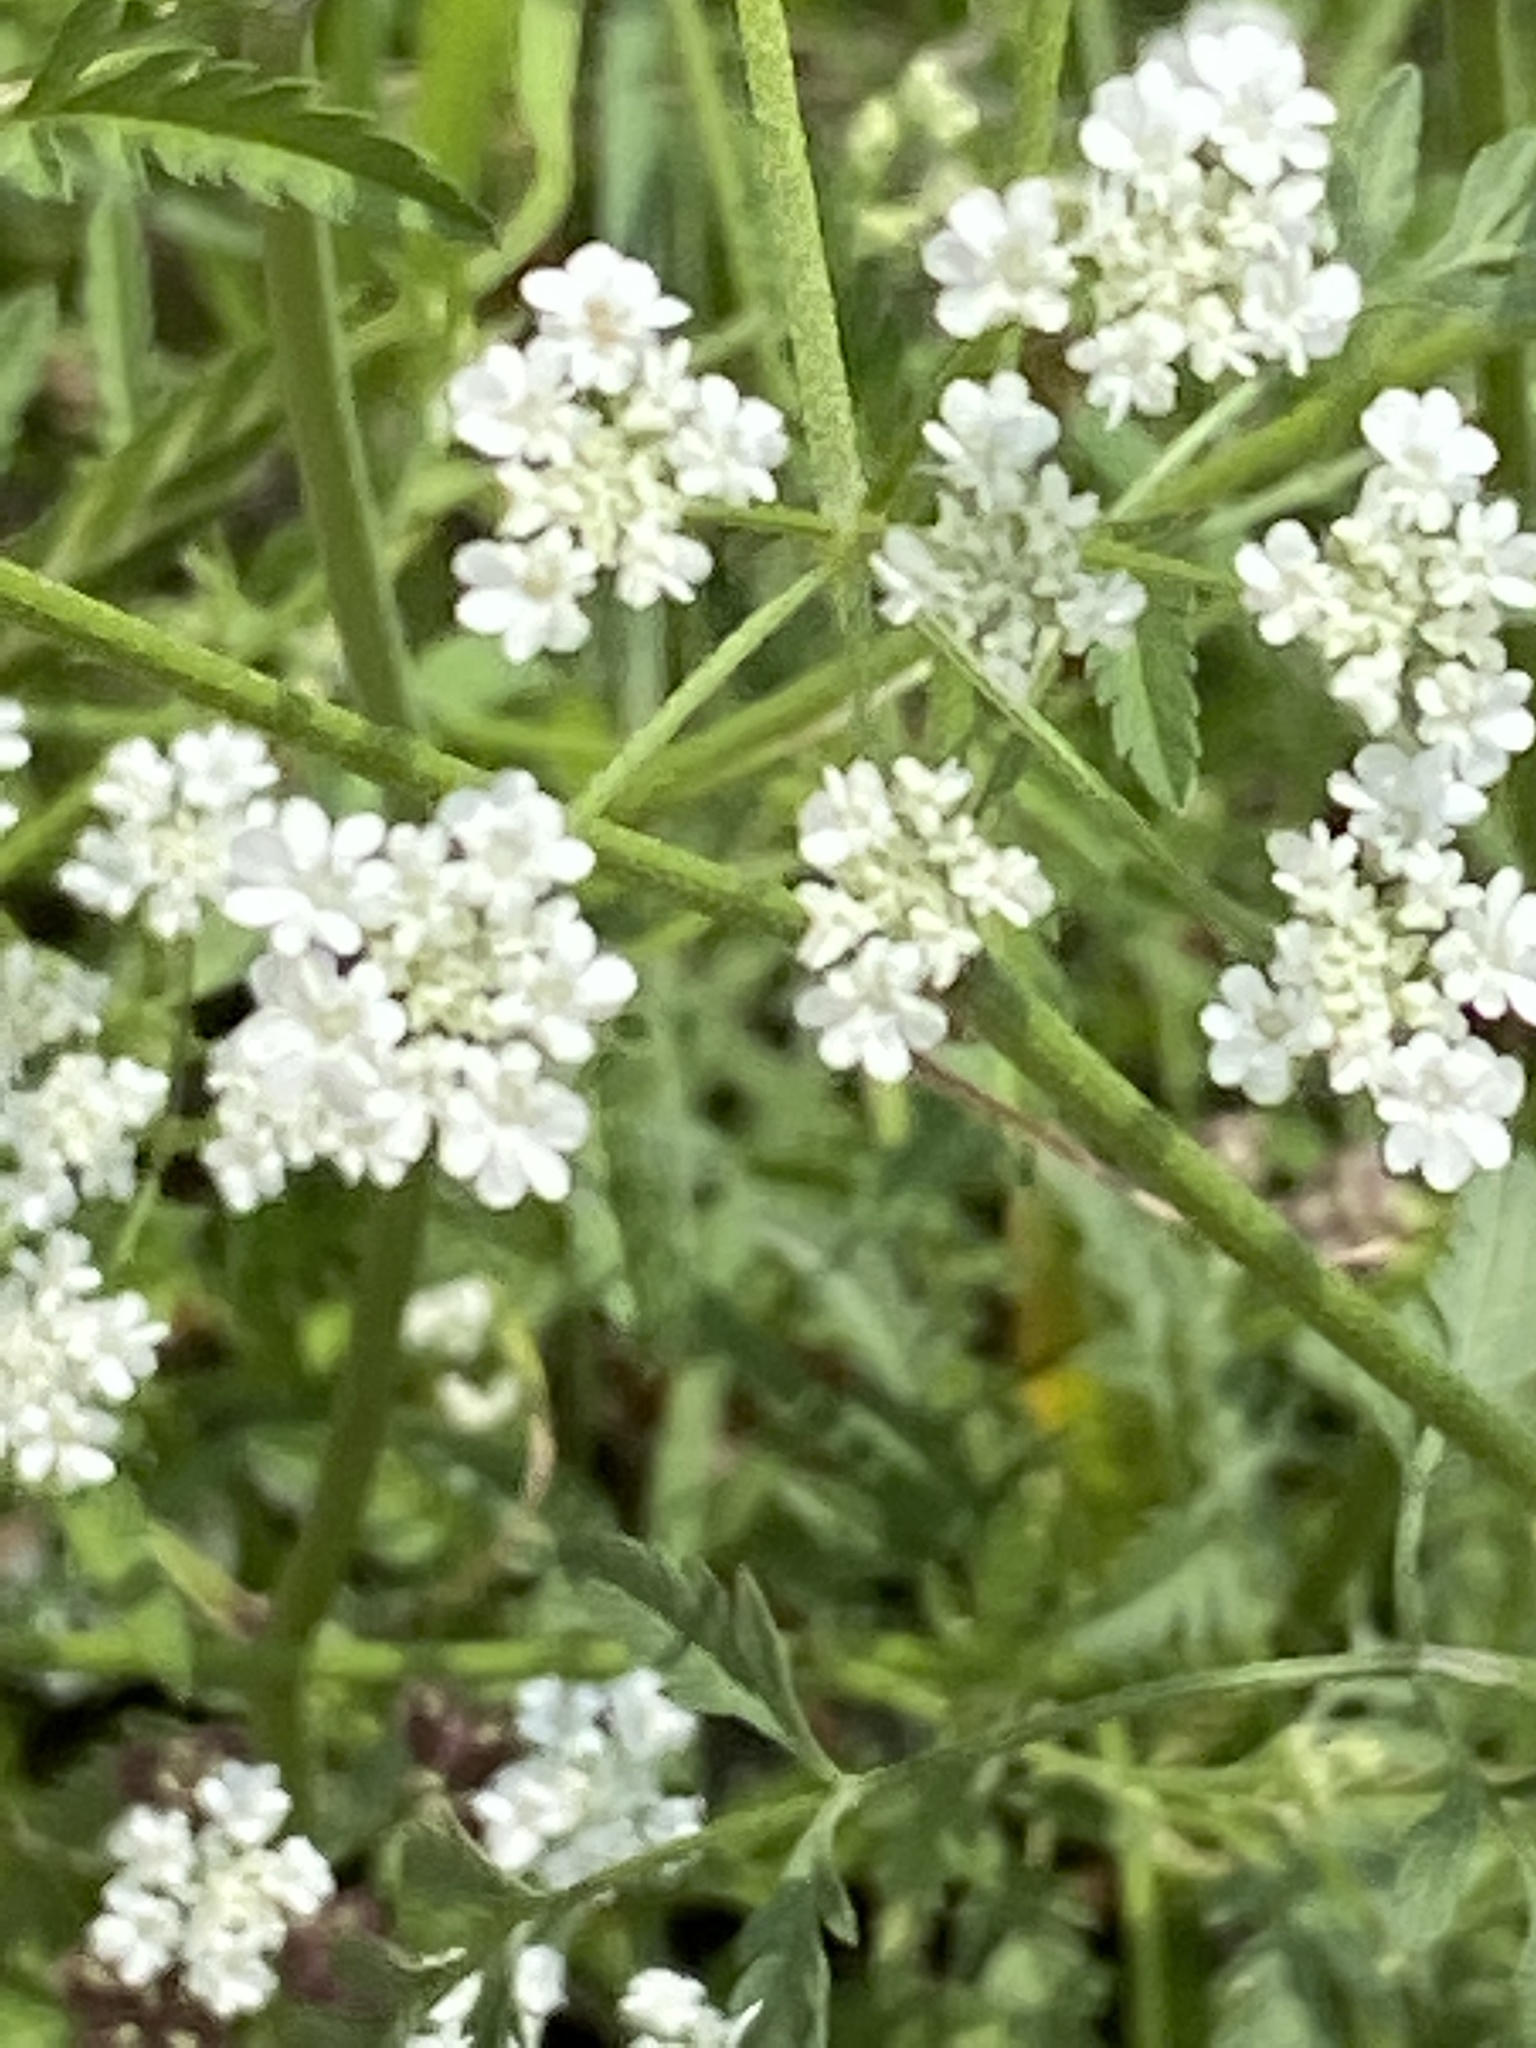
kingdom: Plantae
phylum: Tracheophyta
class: Magnoliopsida
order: Apiales
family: Apiaceae
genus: Torilis
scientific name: Torilis arvensis
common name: Spreading hedge-parsley
